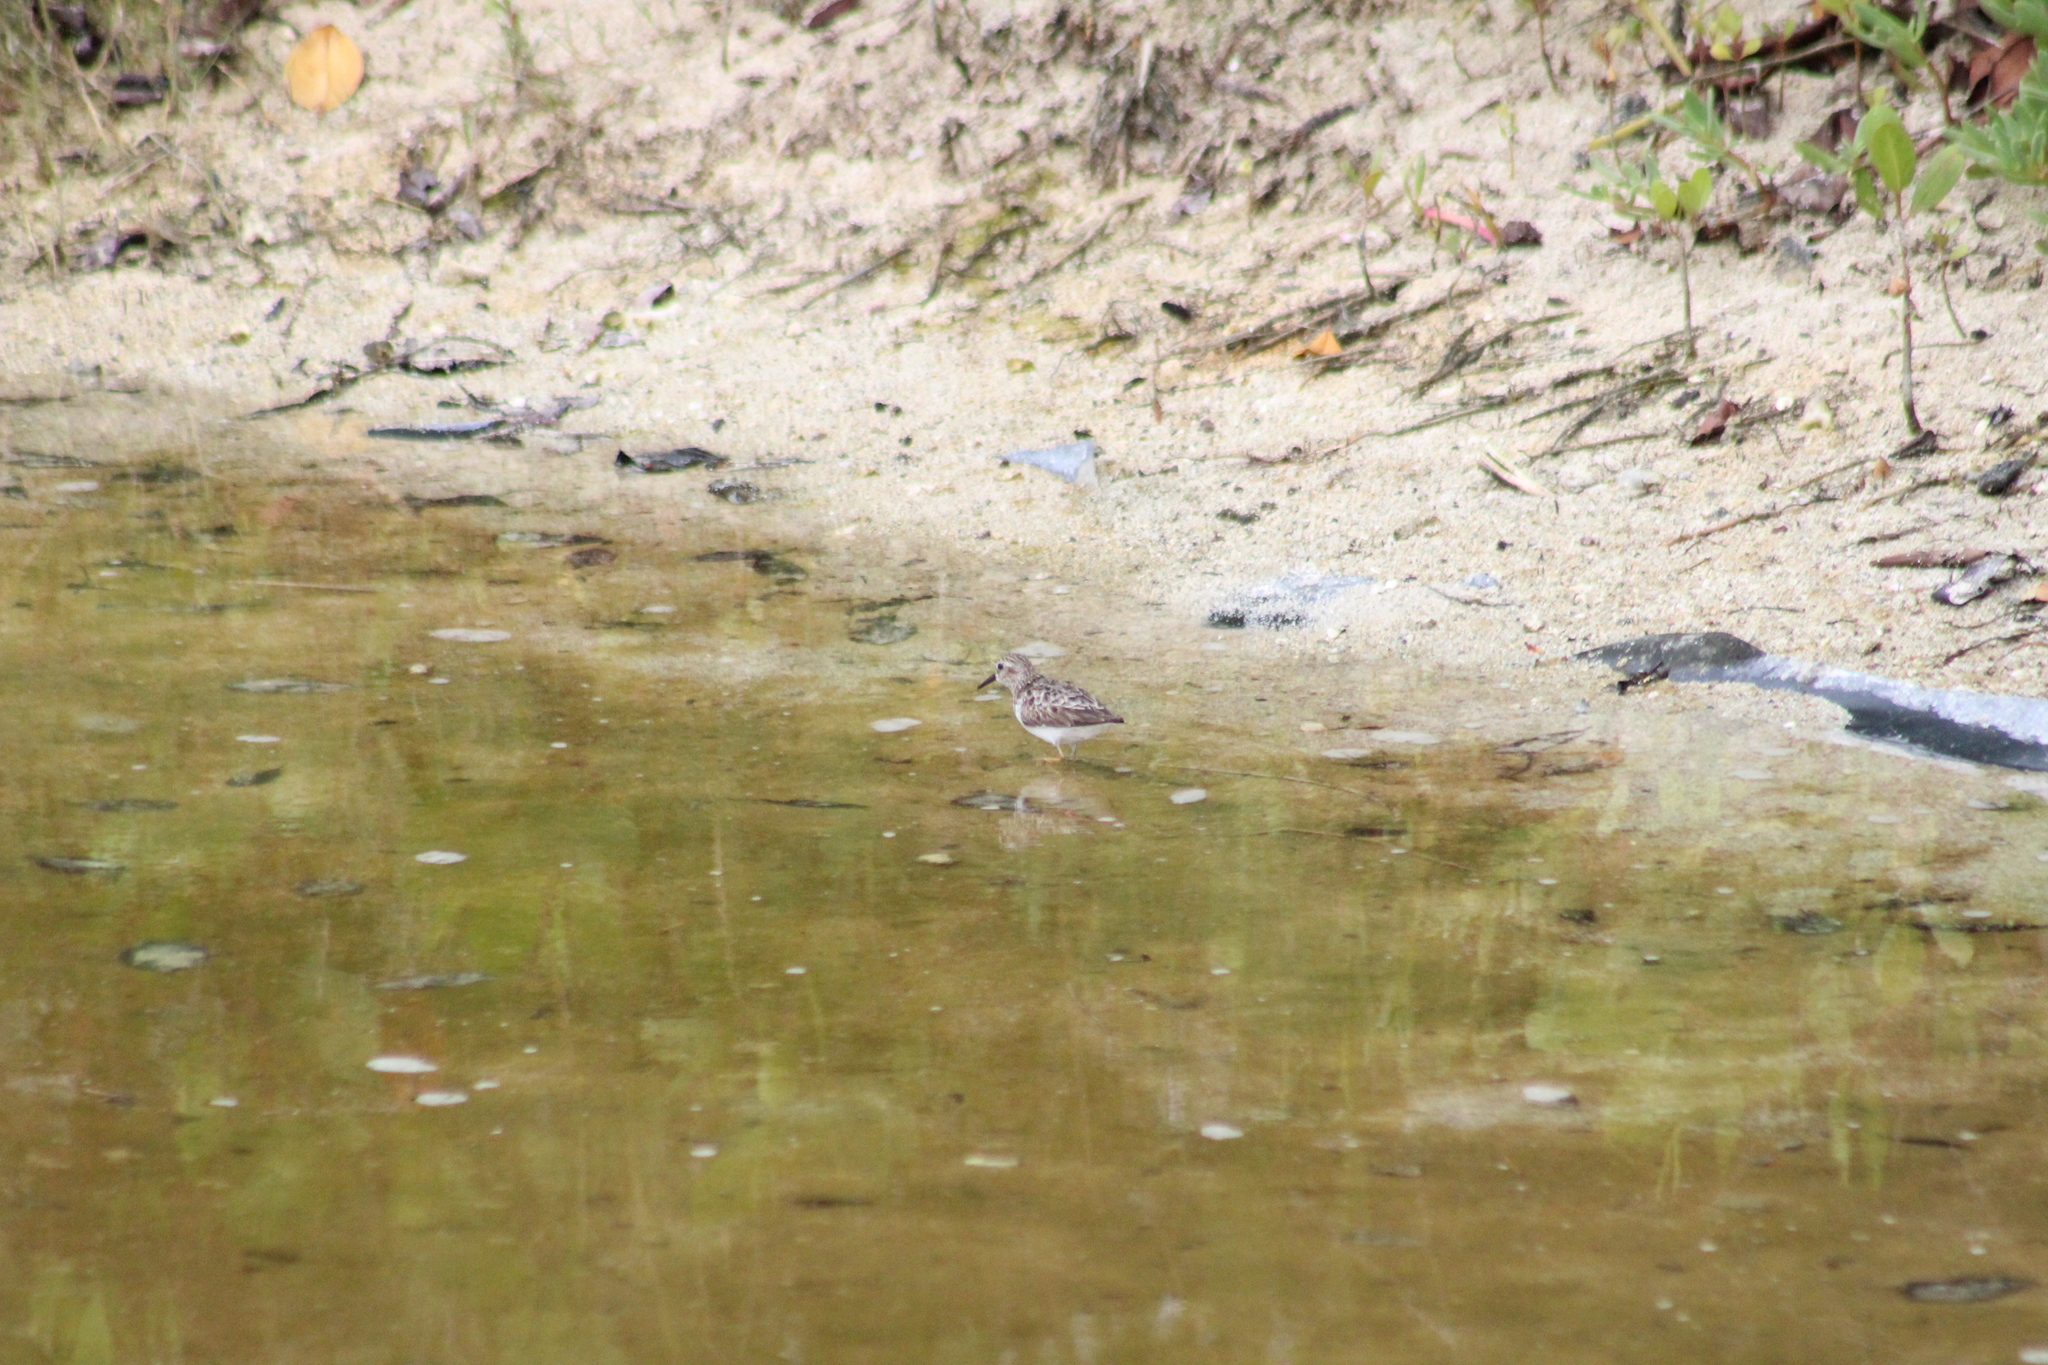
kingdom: Animalia
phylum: Chordata
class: Aves
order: Charadriiformes
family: Scolopacidae
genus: Calidris
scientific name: Calidris minutilla
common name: Least sandpiper
